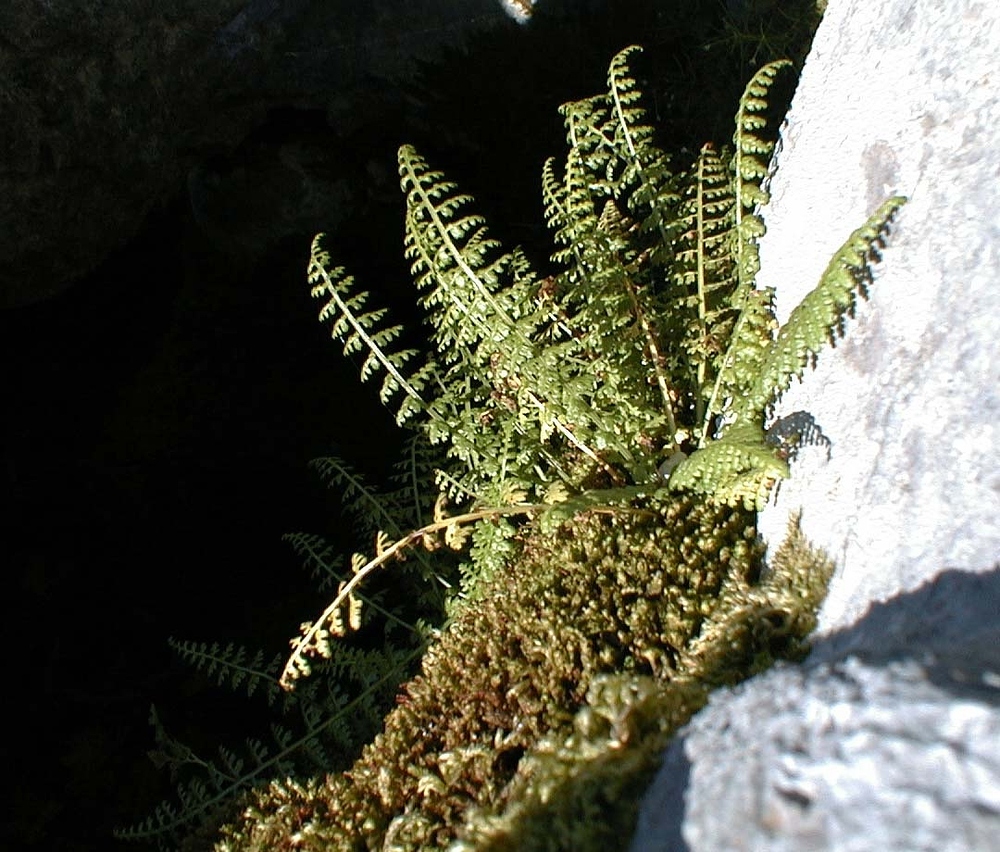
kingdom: Plantae
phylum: Tracheophyta
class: Polypodiopsida
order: Polypodiales
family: Aspleniaceae
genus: Asplenium
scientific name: Asplenium fontanum
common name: Fountain spleenwort
